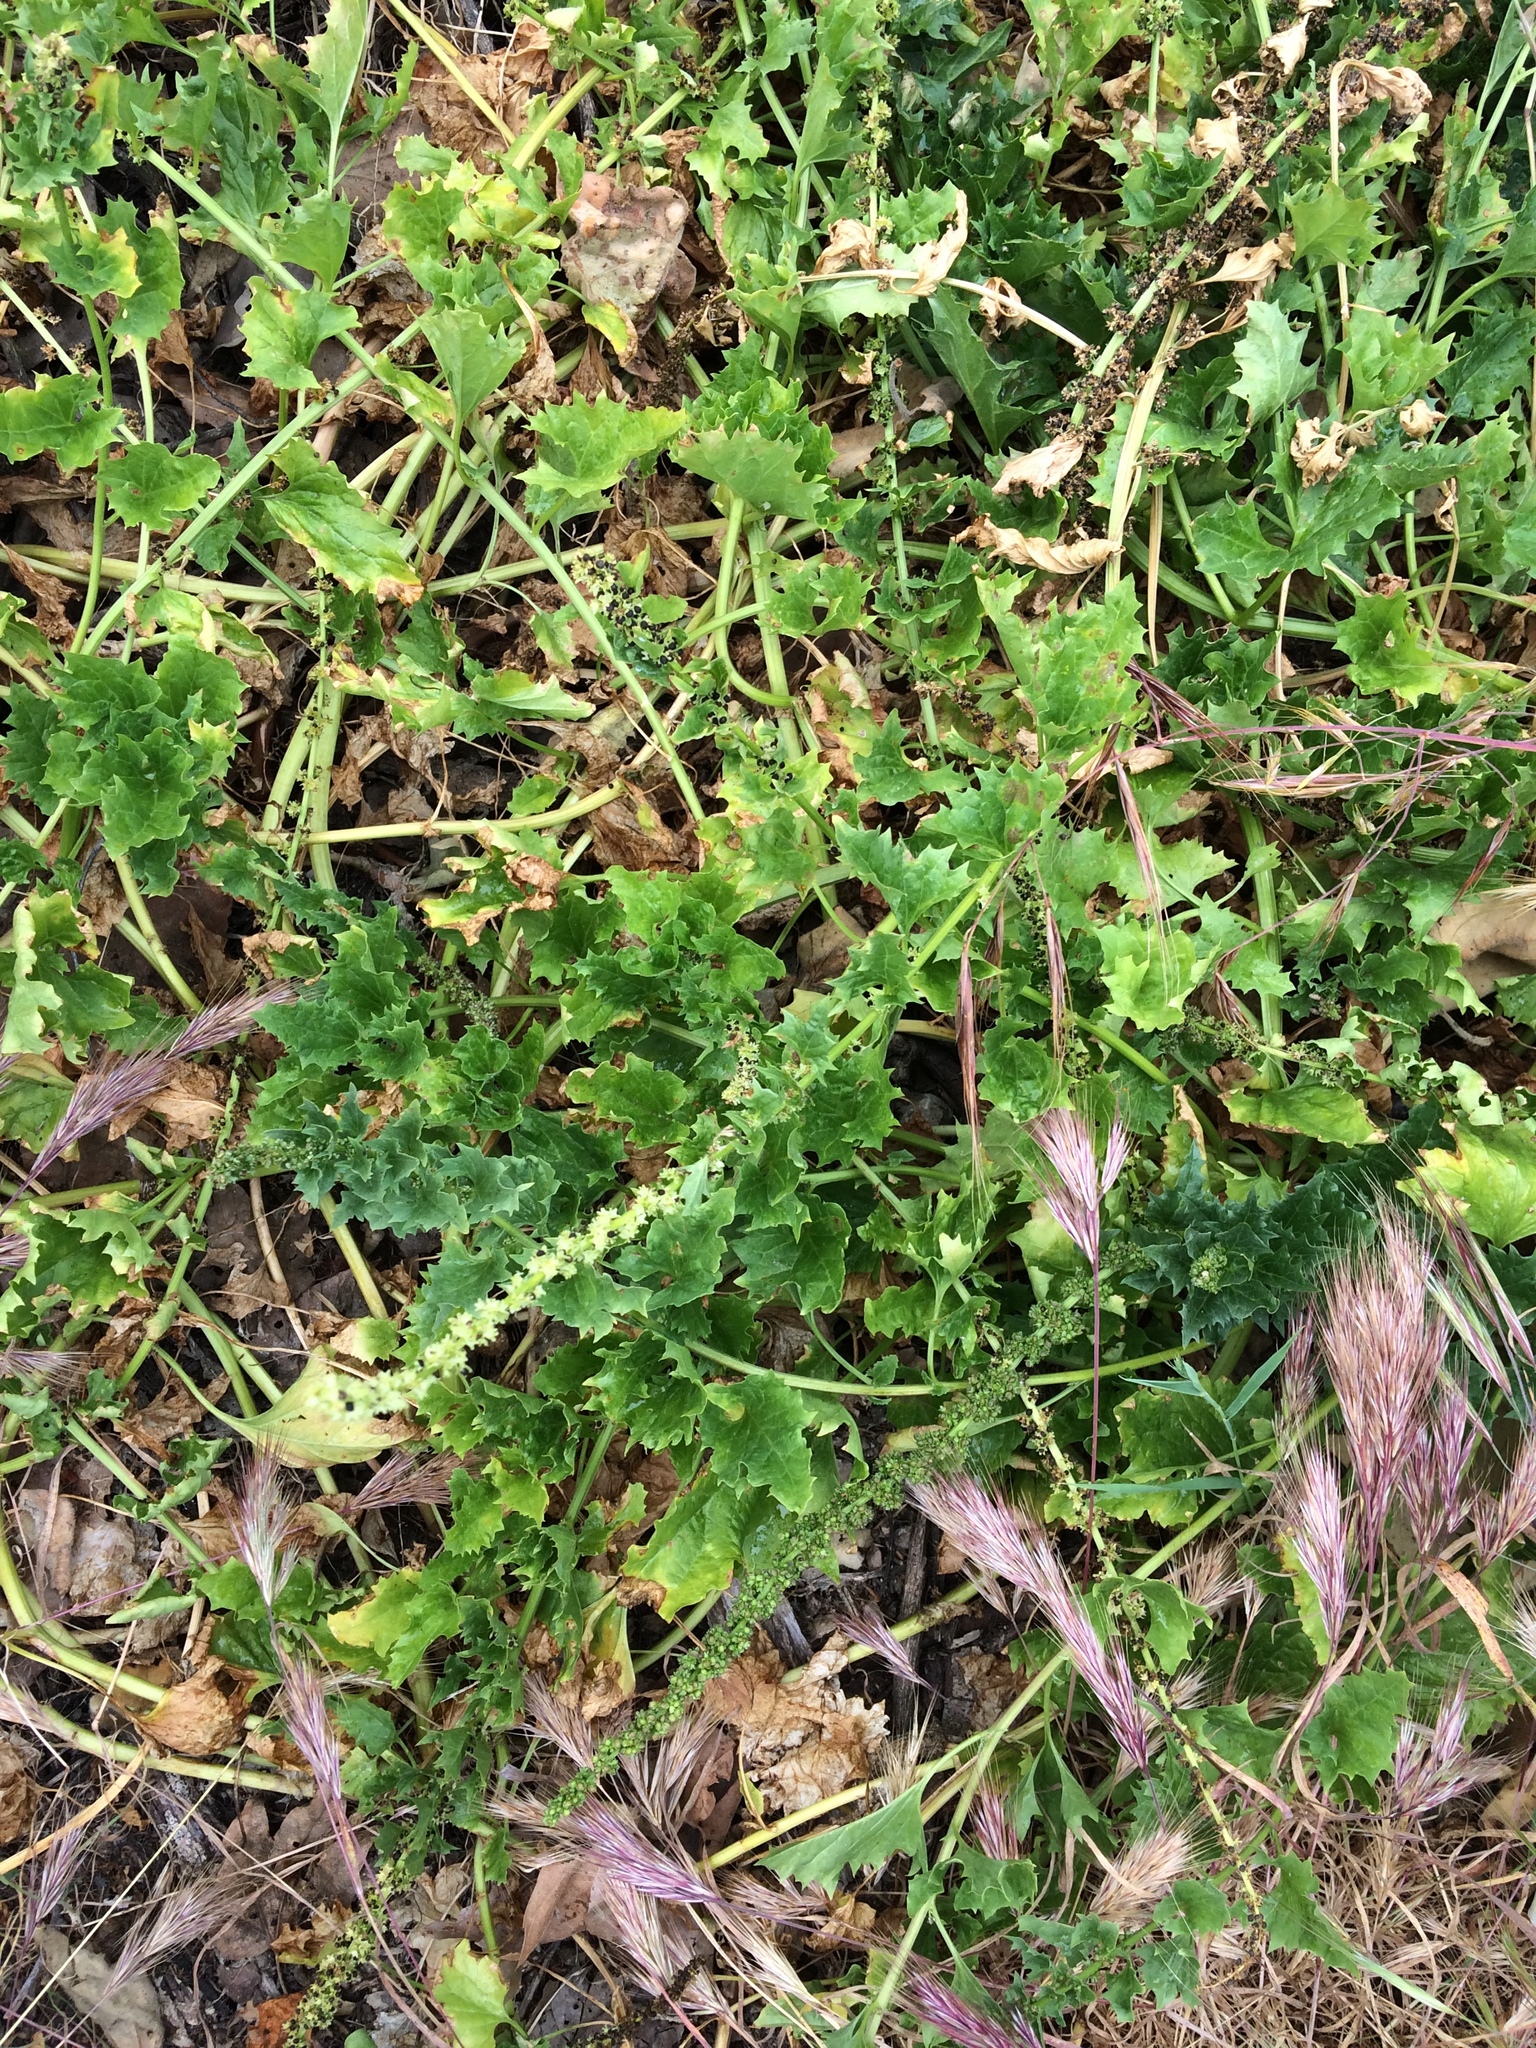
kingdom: Plantae
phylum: Tracheophyta
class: Magnoliopsida
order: Caryophyllales
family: Amaranthaceae
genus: Blitum
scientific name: Blitum californicum
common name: California goosefoot
